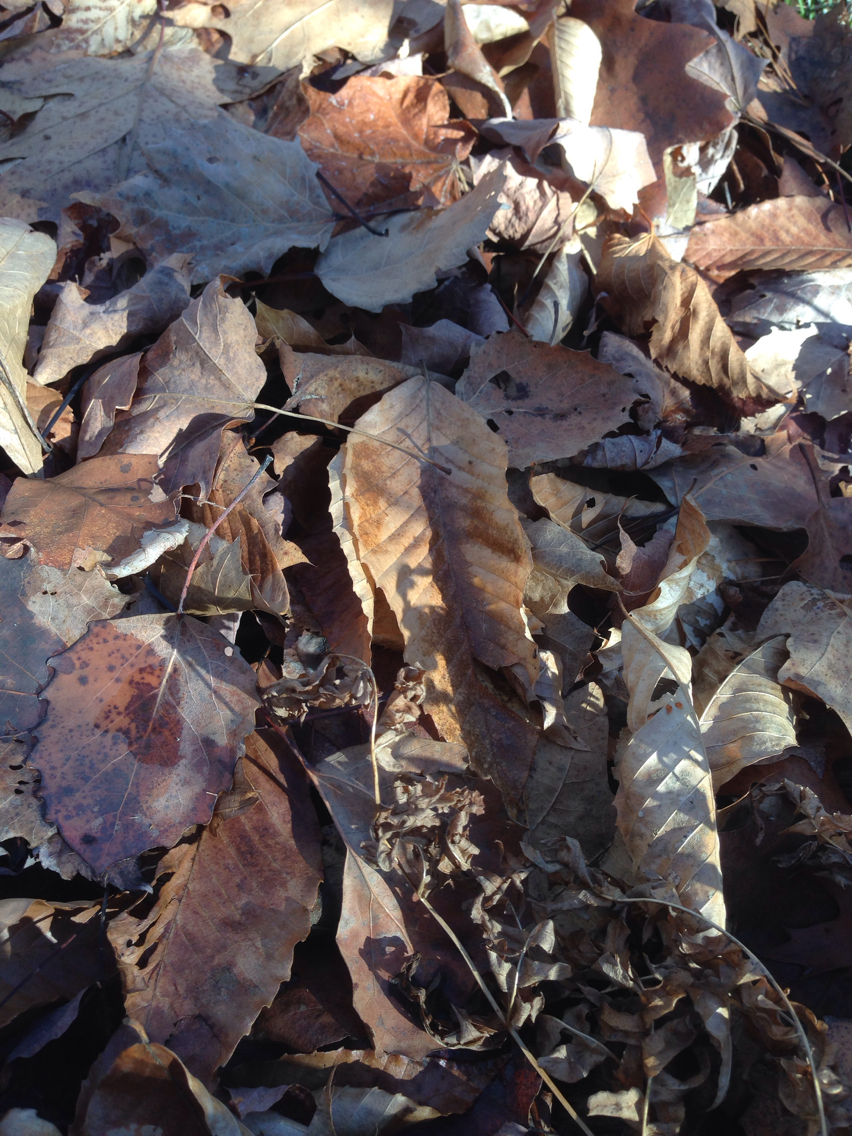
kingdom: Plantae
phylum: Tracheophyta
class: Polypodiopsida
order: Polypodiales
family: Dennstaedtiaceae
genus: Pteridium
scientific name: Pteridium aquilinum
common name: Bracken
